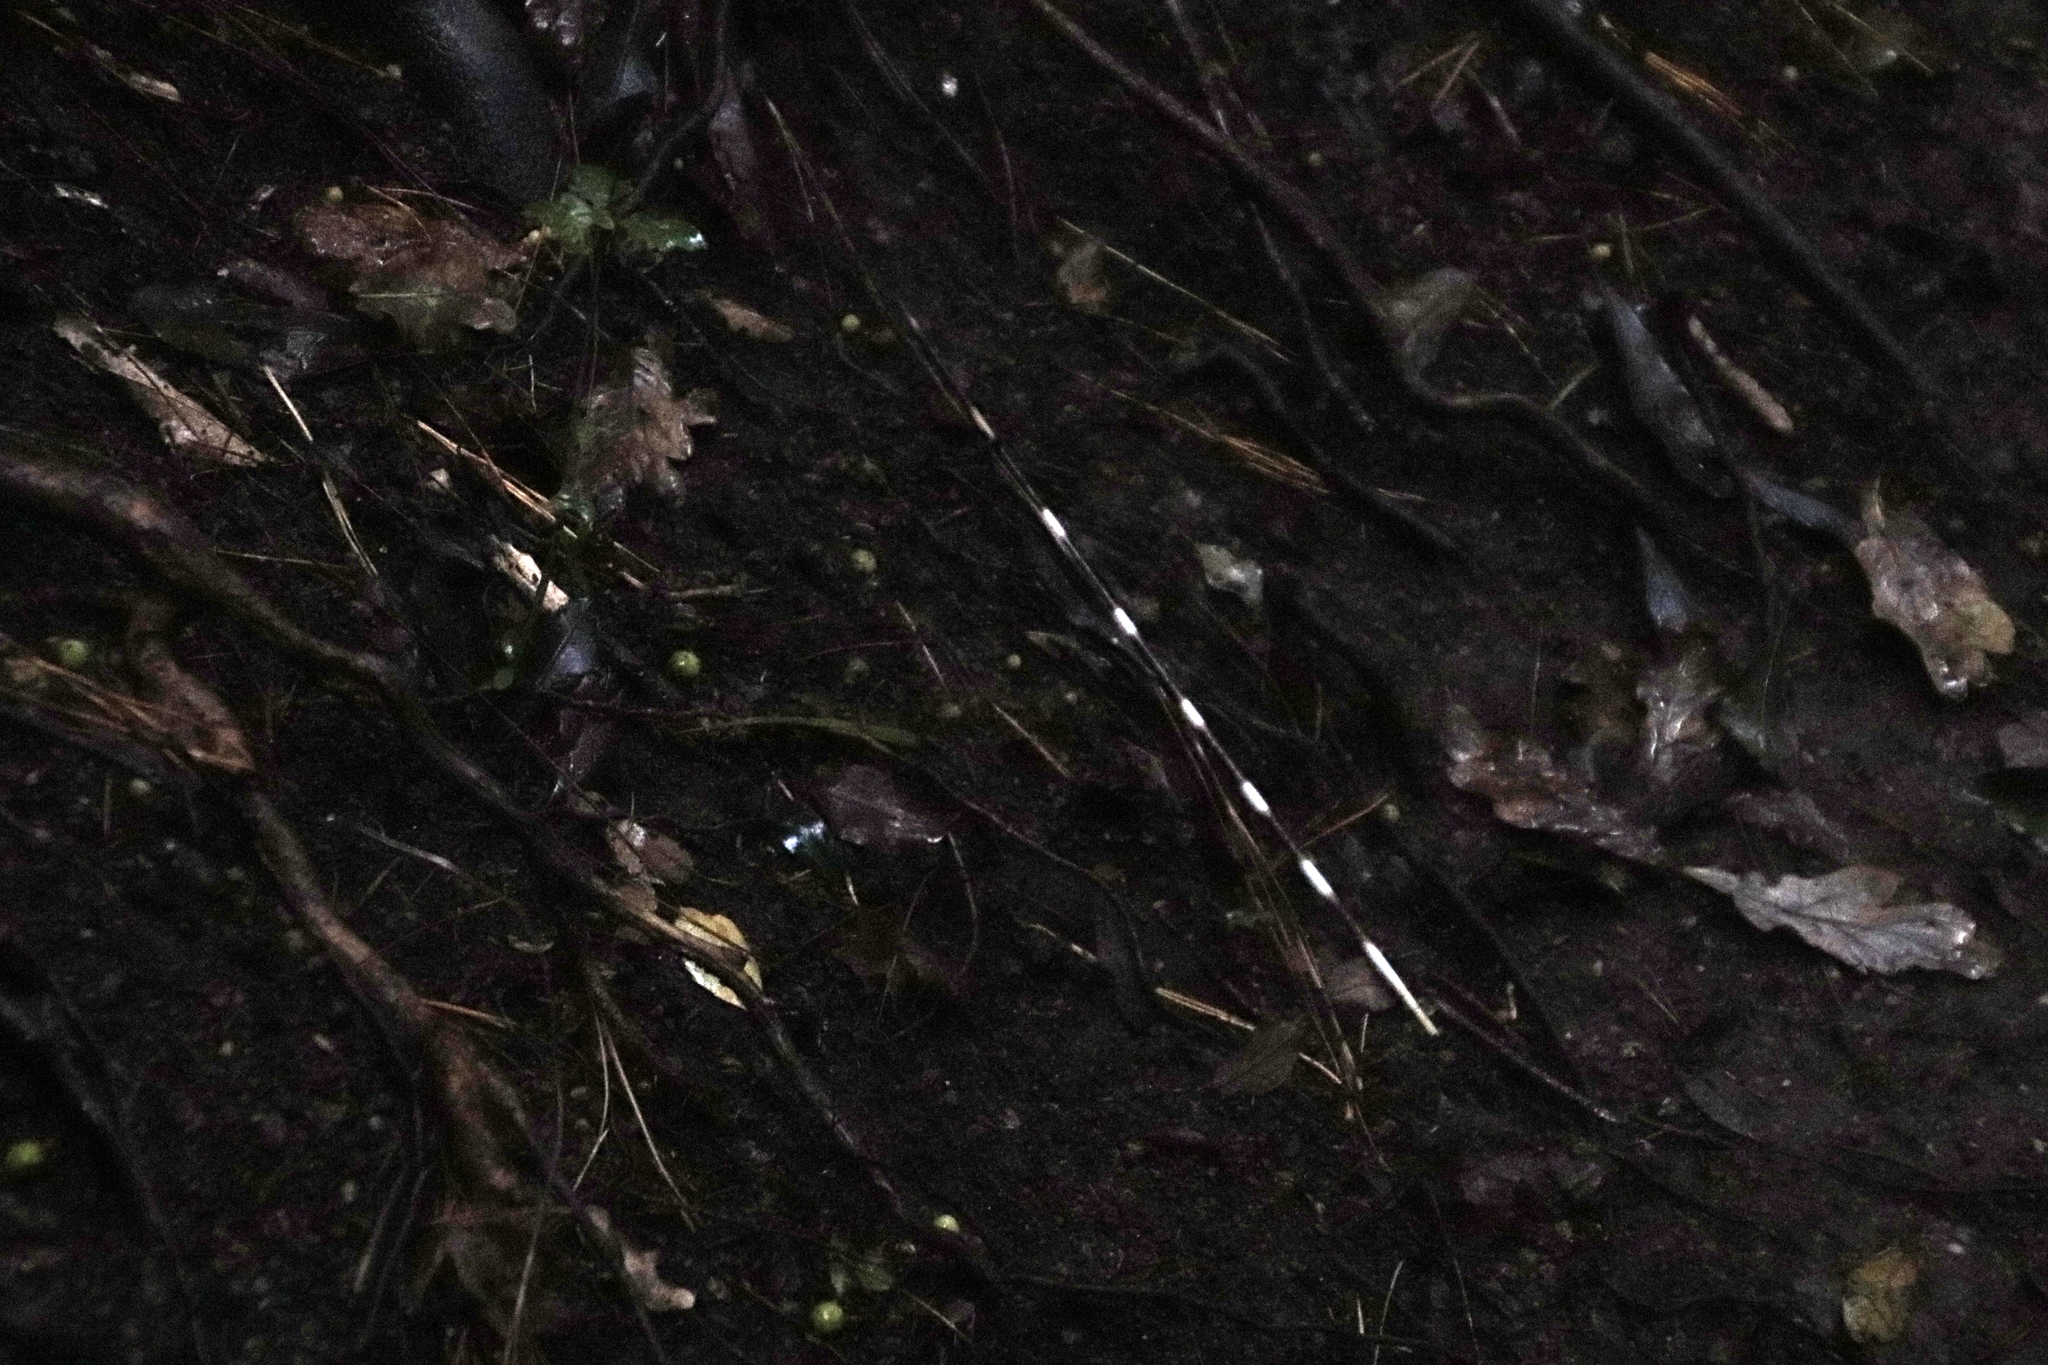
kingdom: Animalia
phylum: Chordata
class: Mammalia
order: Rodentia
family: Hystricidae
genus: Hystrix
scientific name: Hystrix africaeaustralis
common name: Cape porcupine
